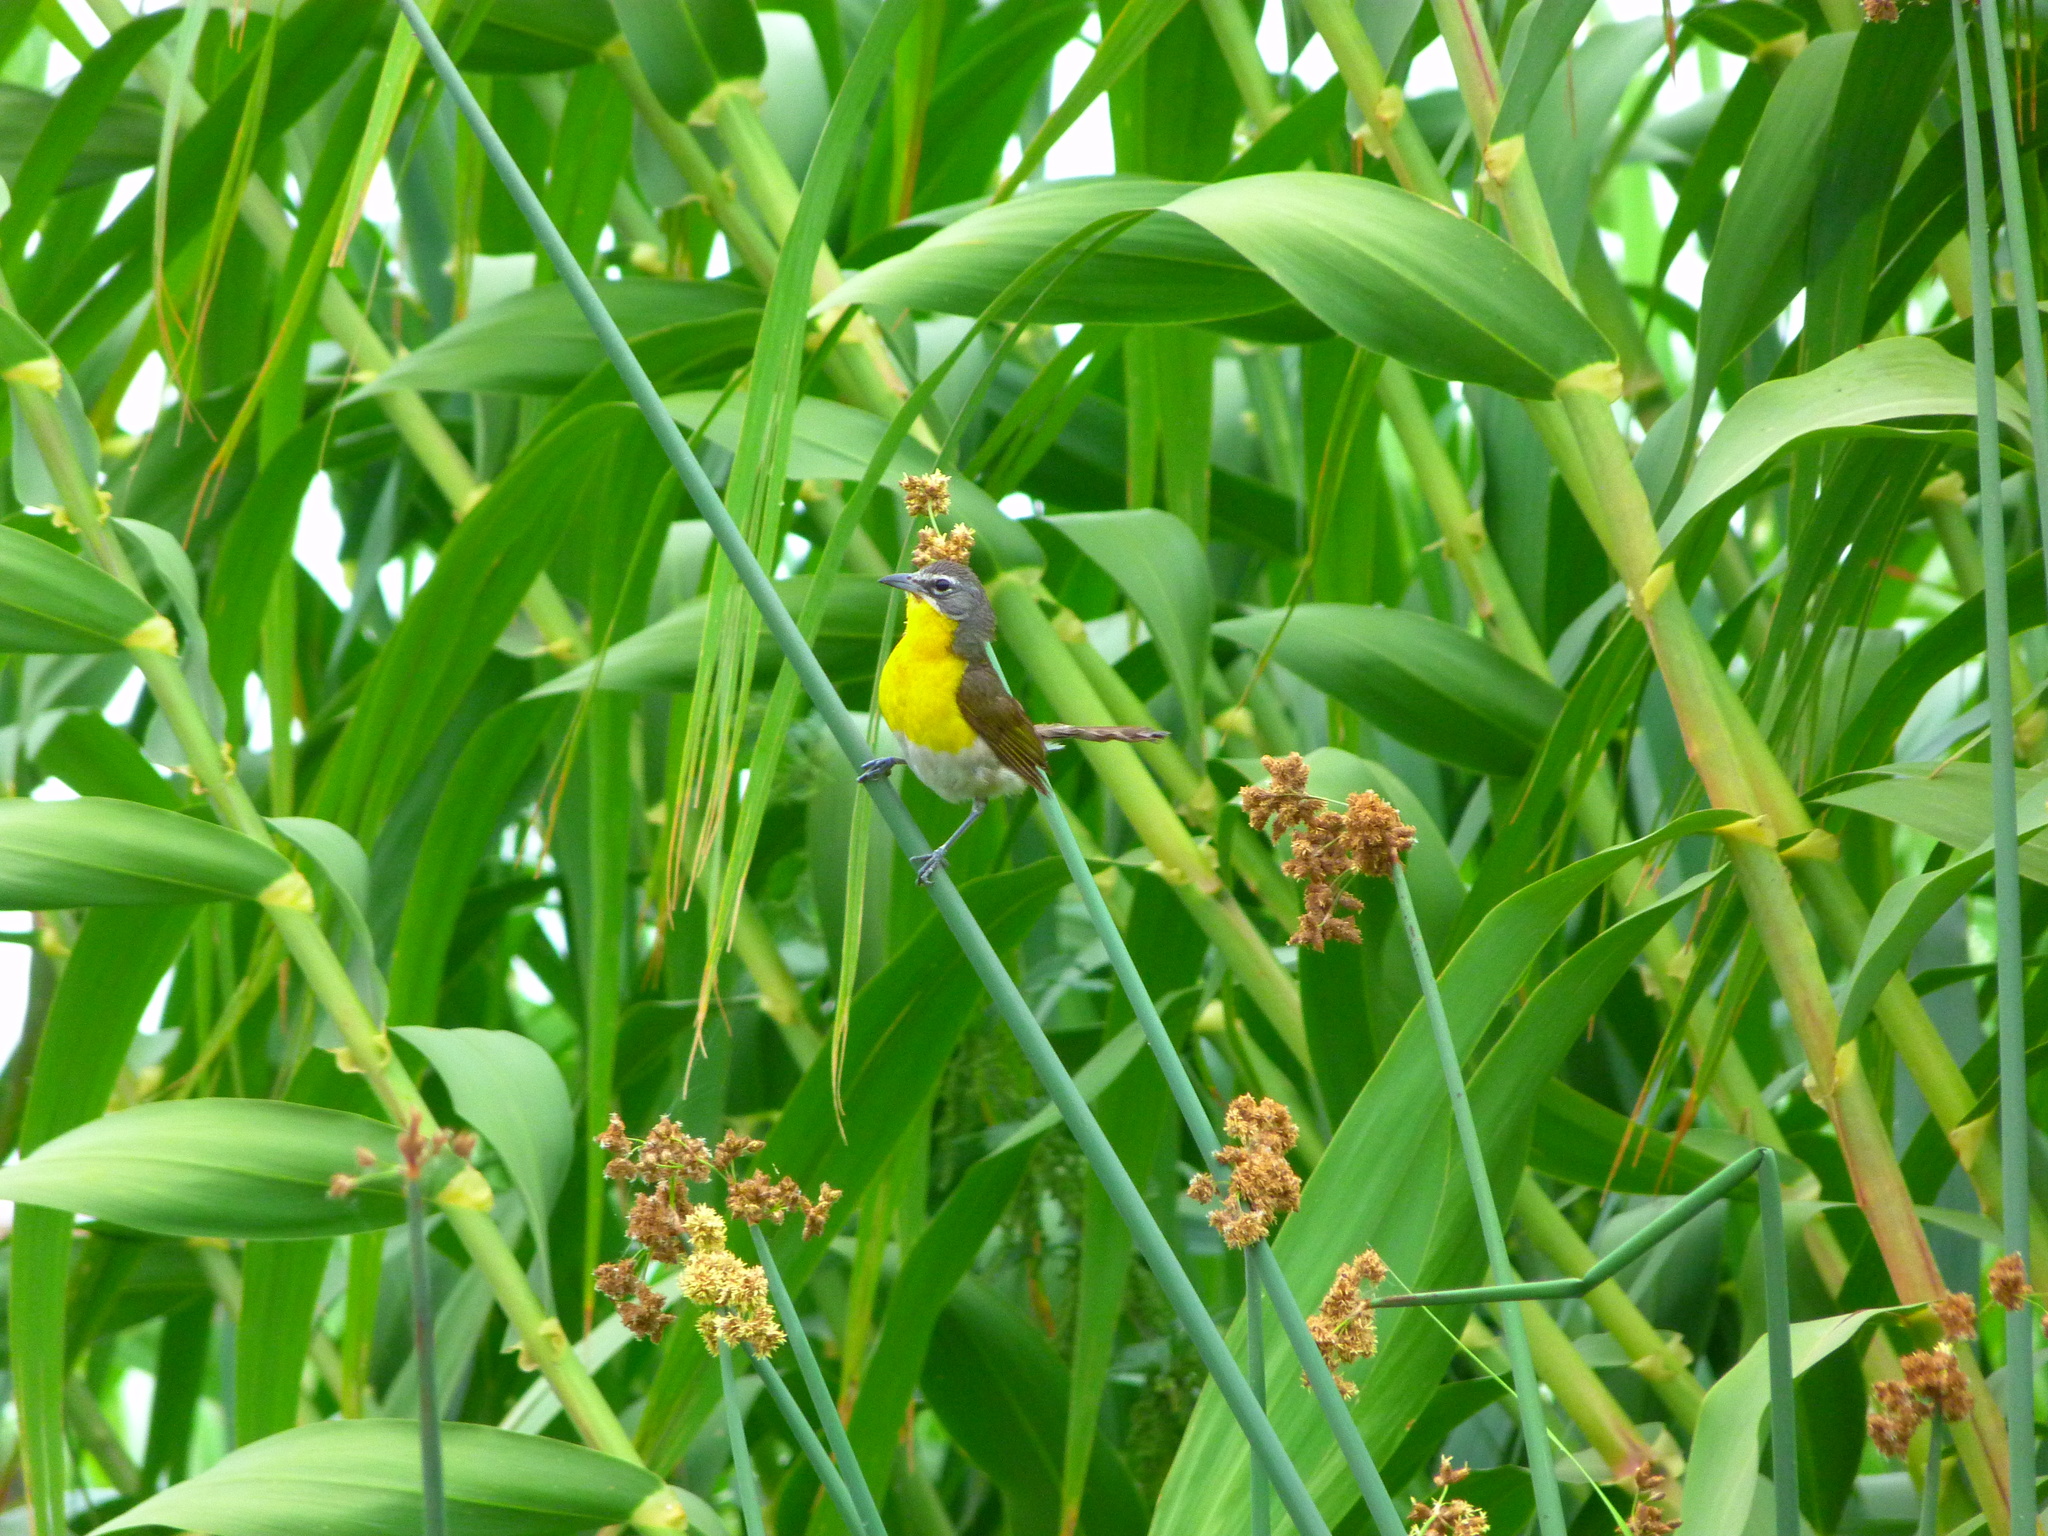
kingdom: Animalia
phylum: Chordata
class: Aves
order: Passeriformes
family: Parulidae
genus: Icteria
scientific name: Icteria virens
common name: Yellow-breasted chat
